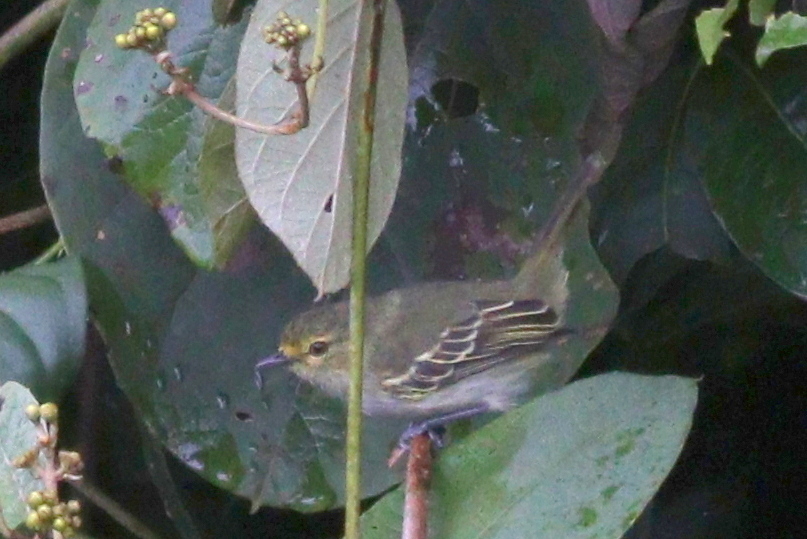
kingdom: Animalia
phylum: Chordata
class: Aves
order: Passeriformes
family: Tyrannidae
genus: Zimmerius
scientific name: Zimmerius chrysops
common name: Golden-faced tyrannulet
